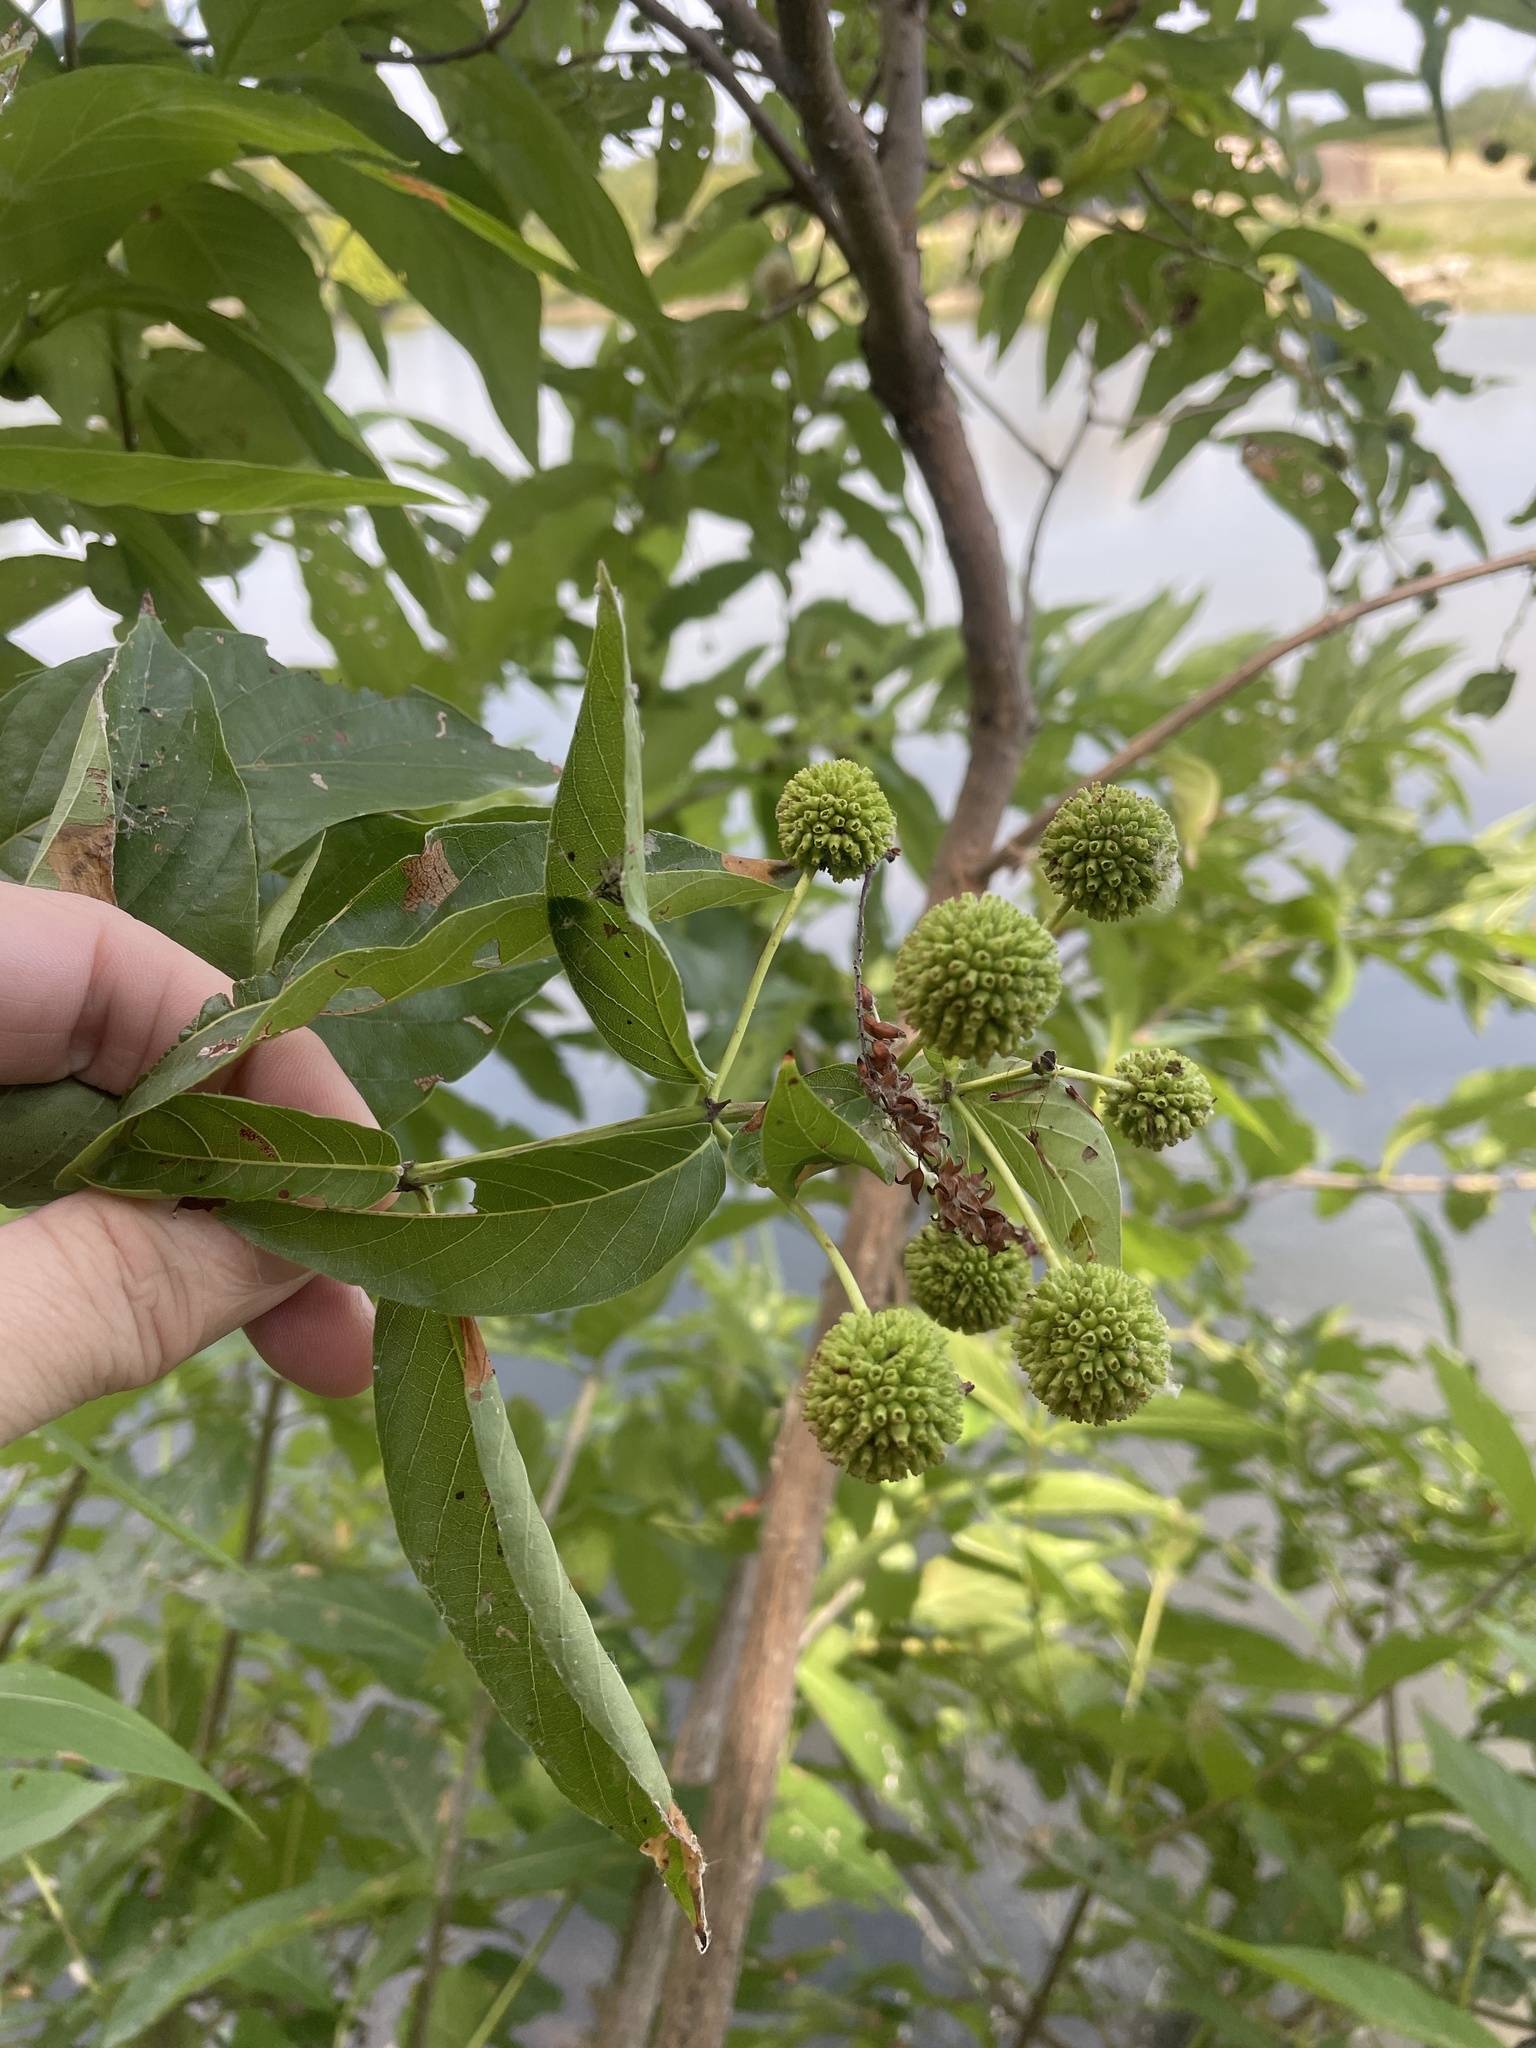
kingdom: Plantae
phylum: Tracheophyta
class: Magnoliopsida
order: Gentianales
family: Rubiaceae
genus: Cephalanthus
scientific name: Cephalanthus occidentalis
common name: Button-willow
